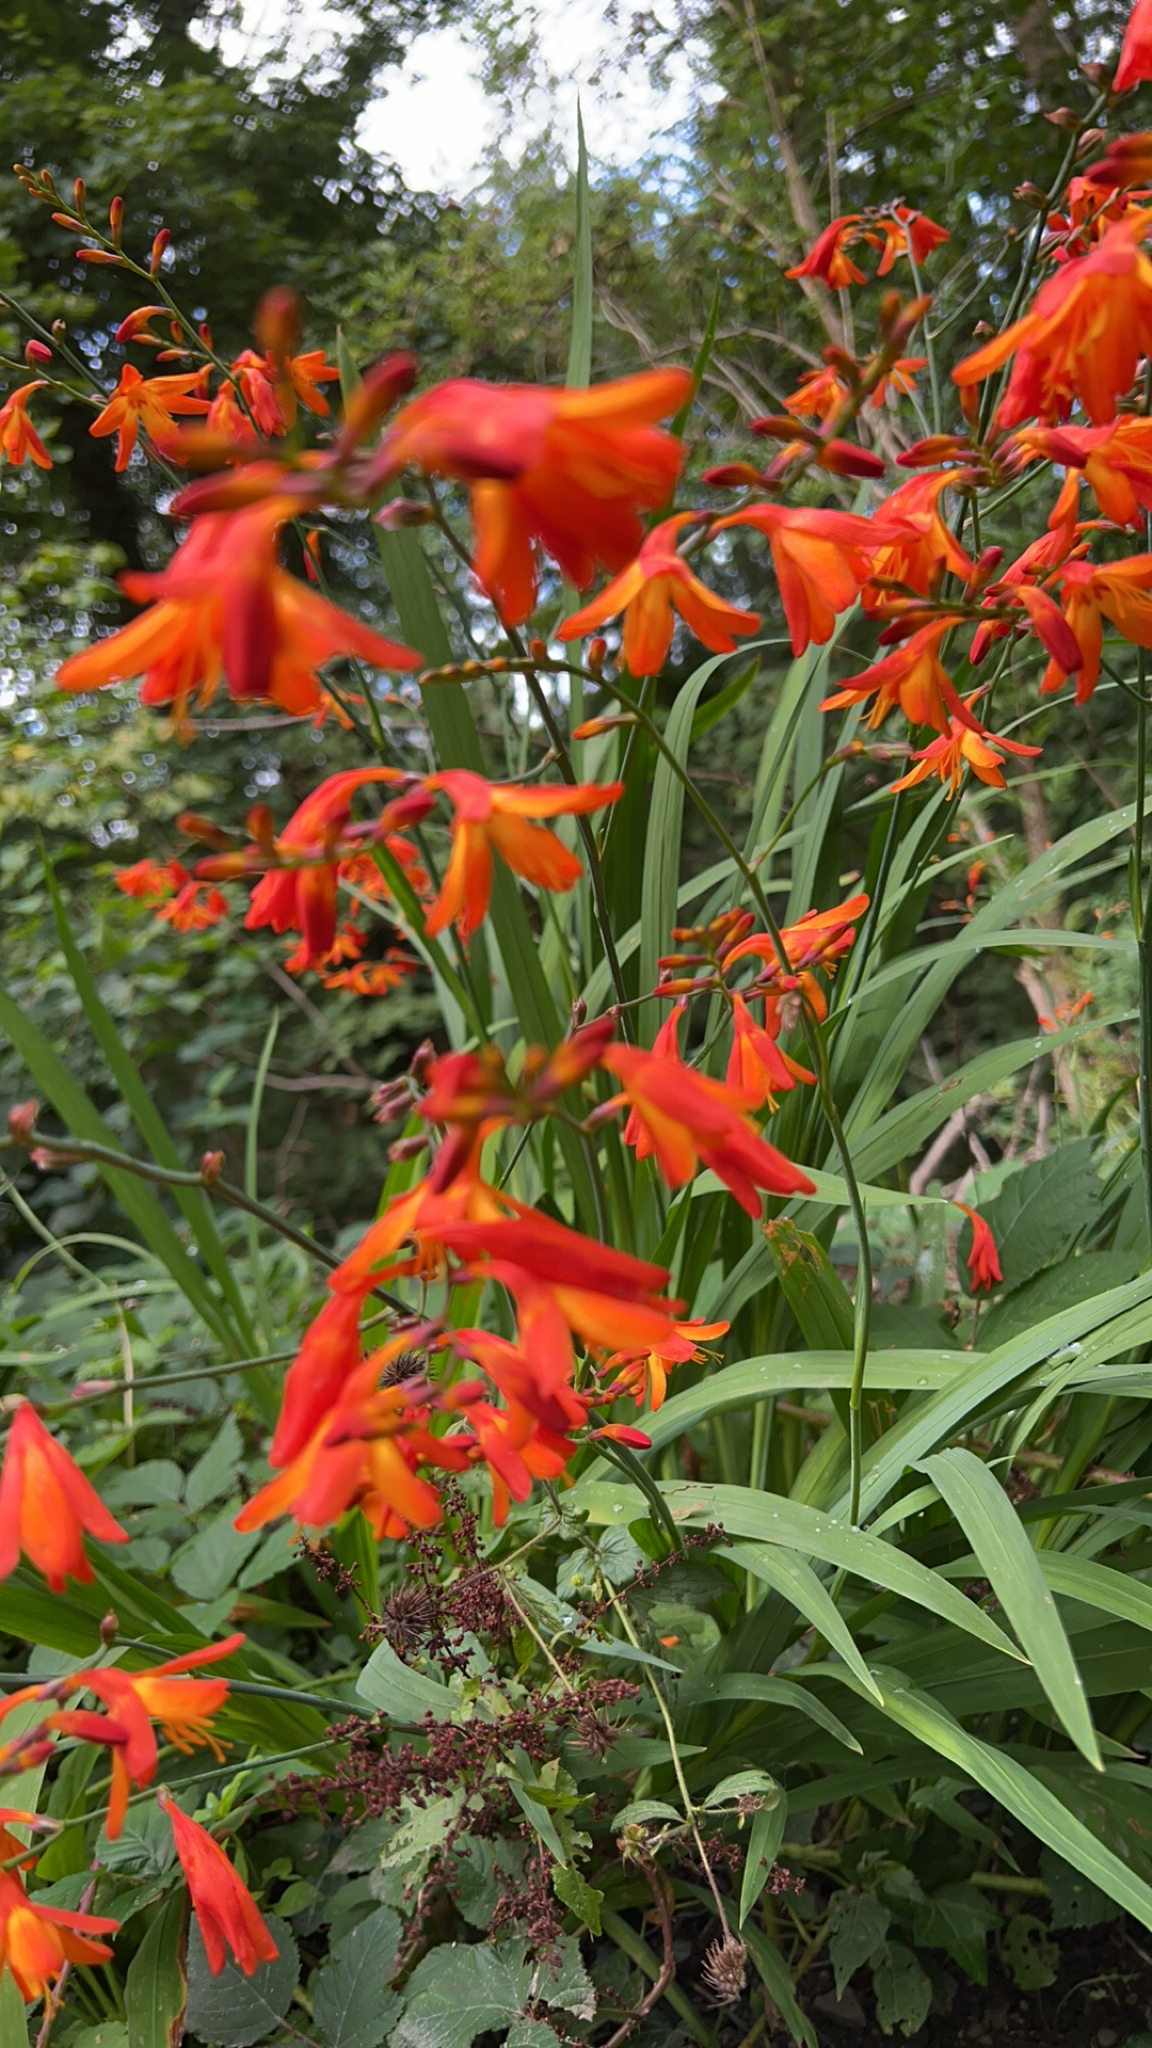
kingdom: Plantae
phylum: Tracheophyta
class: Liliopsida
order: Asparagales
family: Iridaceae
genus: Crocosmia
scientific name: Crocosmia crocosmiiflora
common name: Montbretia
